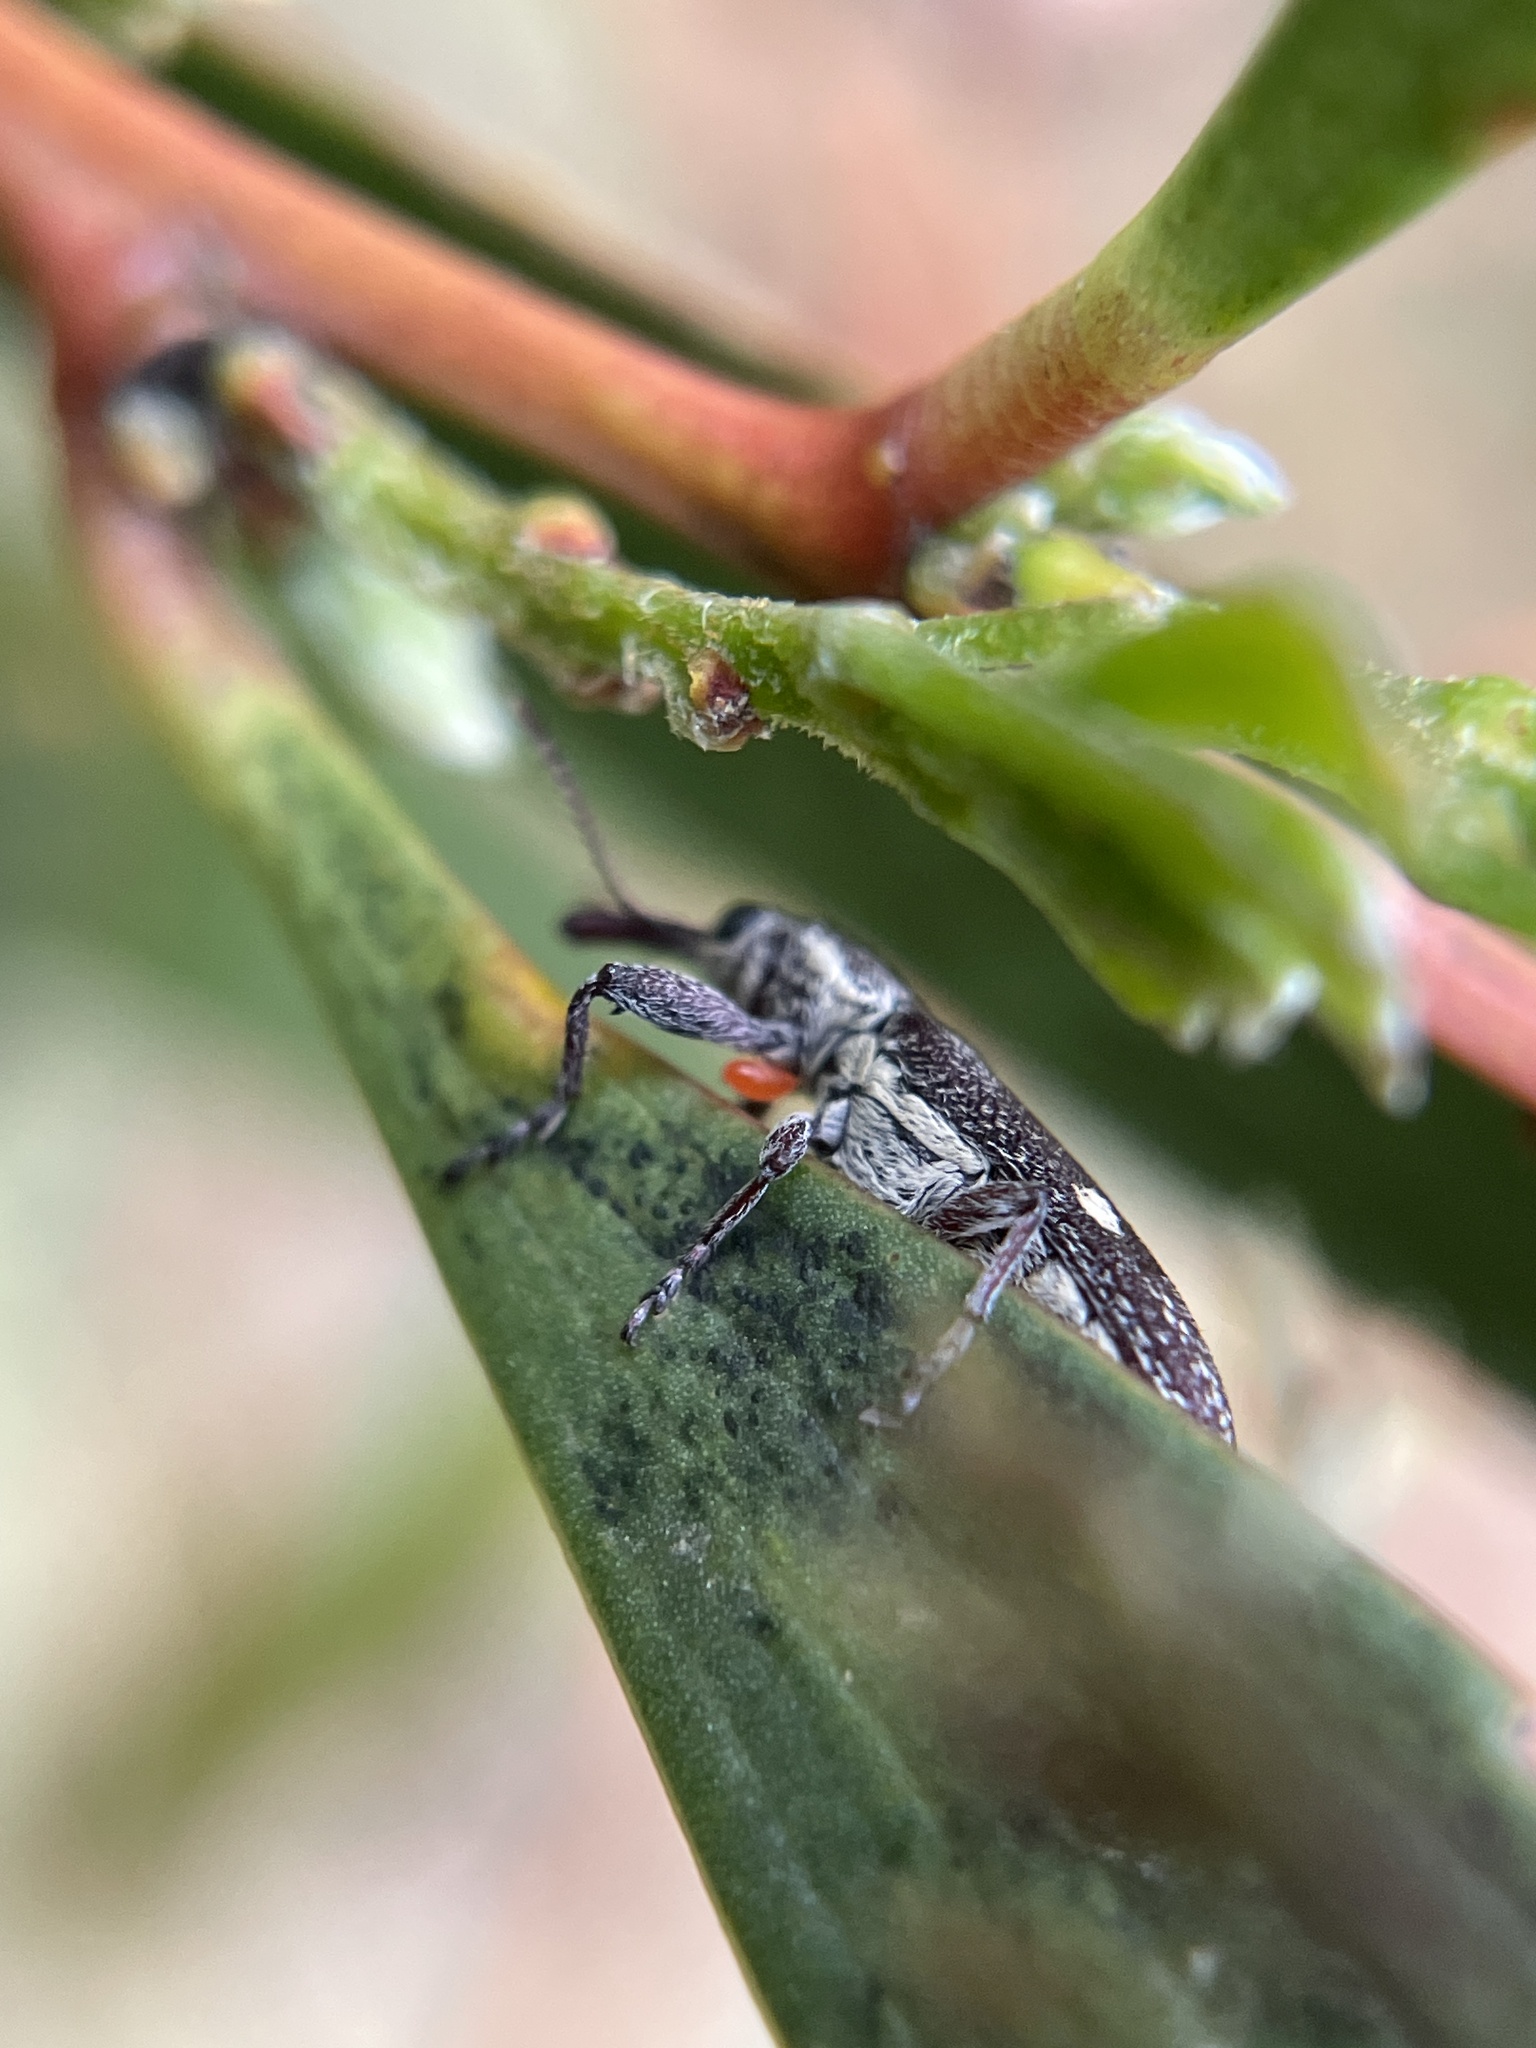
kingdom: Animalia
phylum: Arthropoda
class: Insecta
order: Coleoptera
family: Belidae
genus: Rhinotia
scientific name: Rhinotia bimaculata
